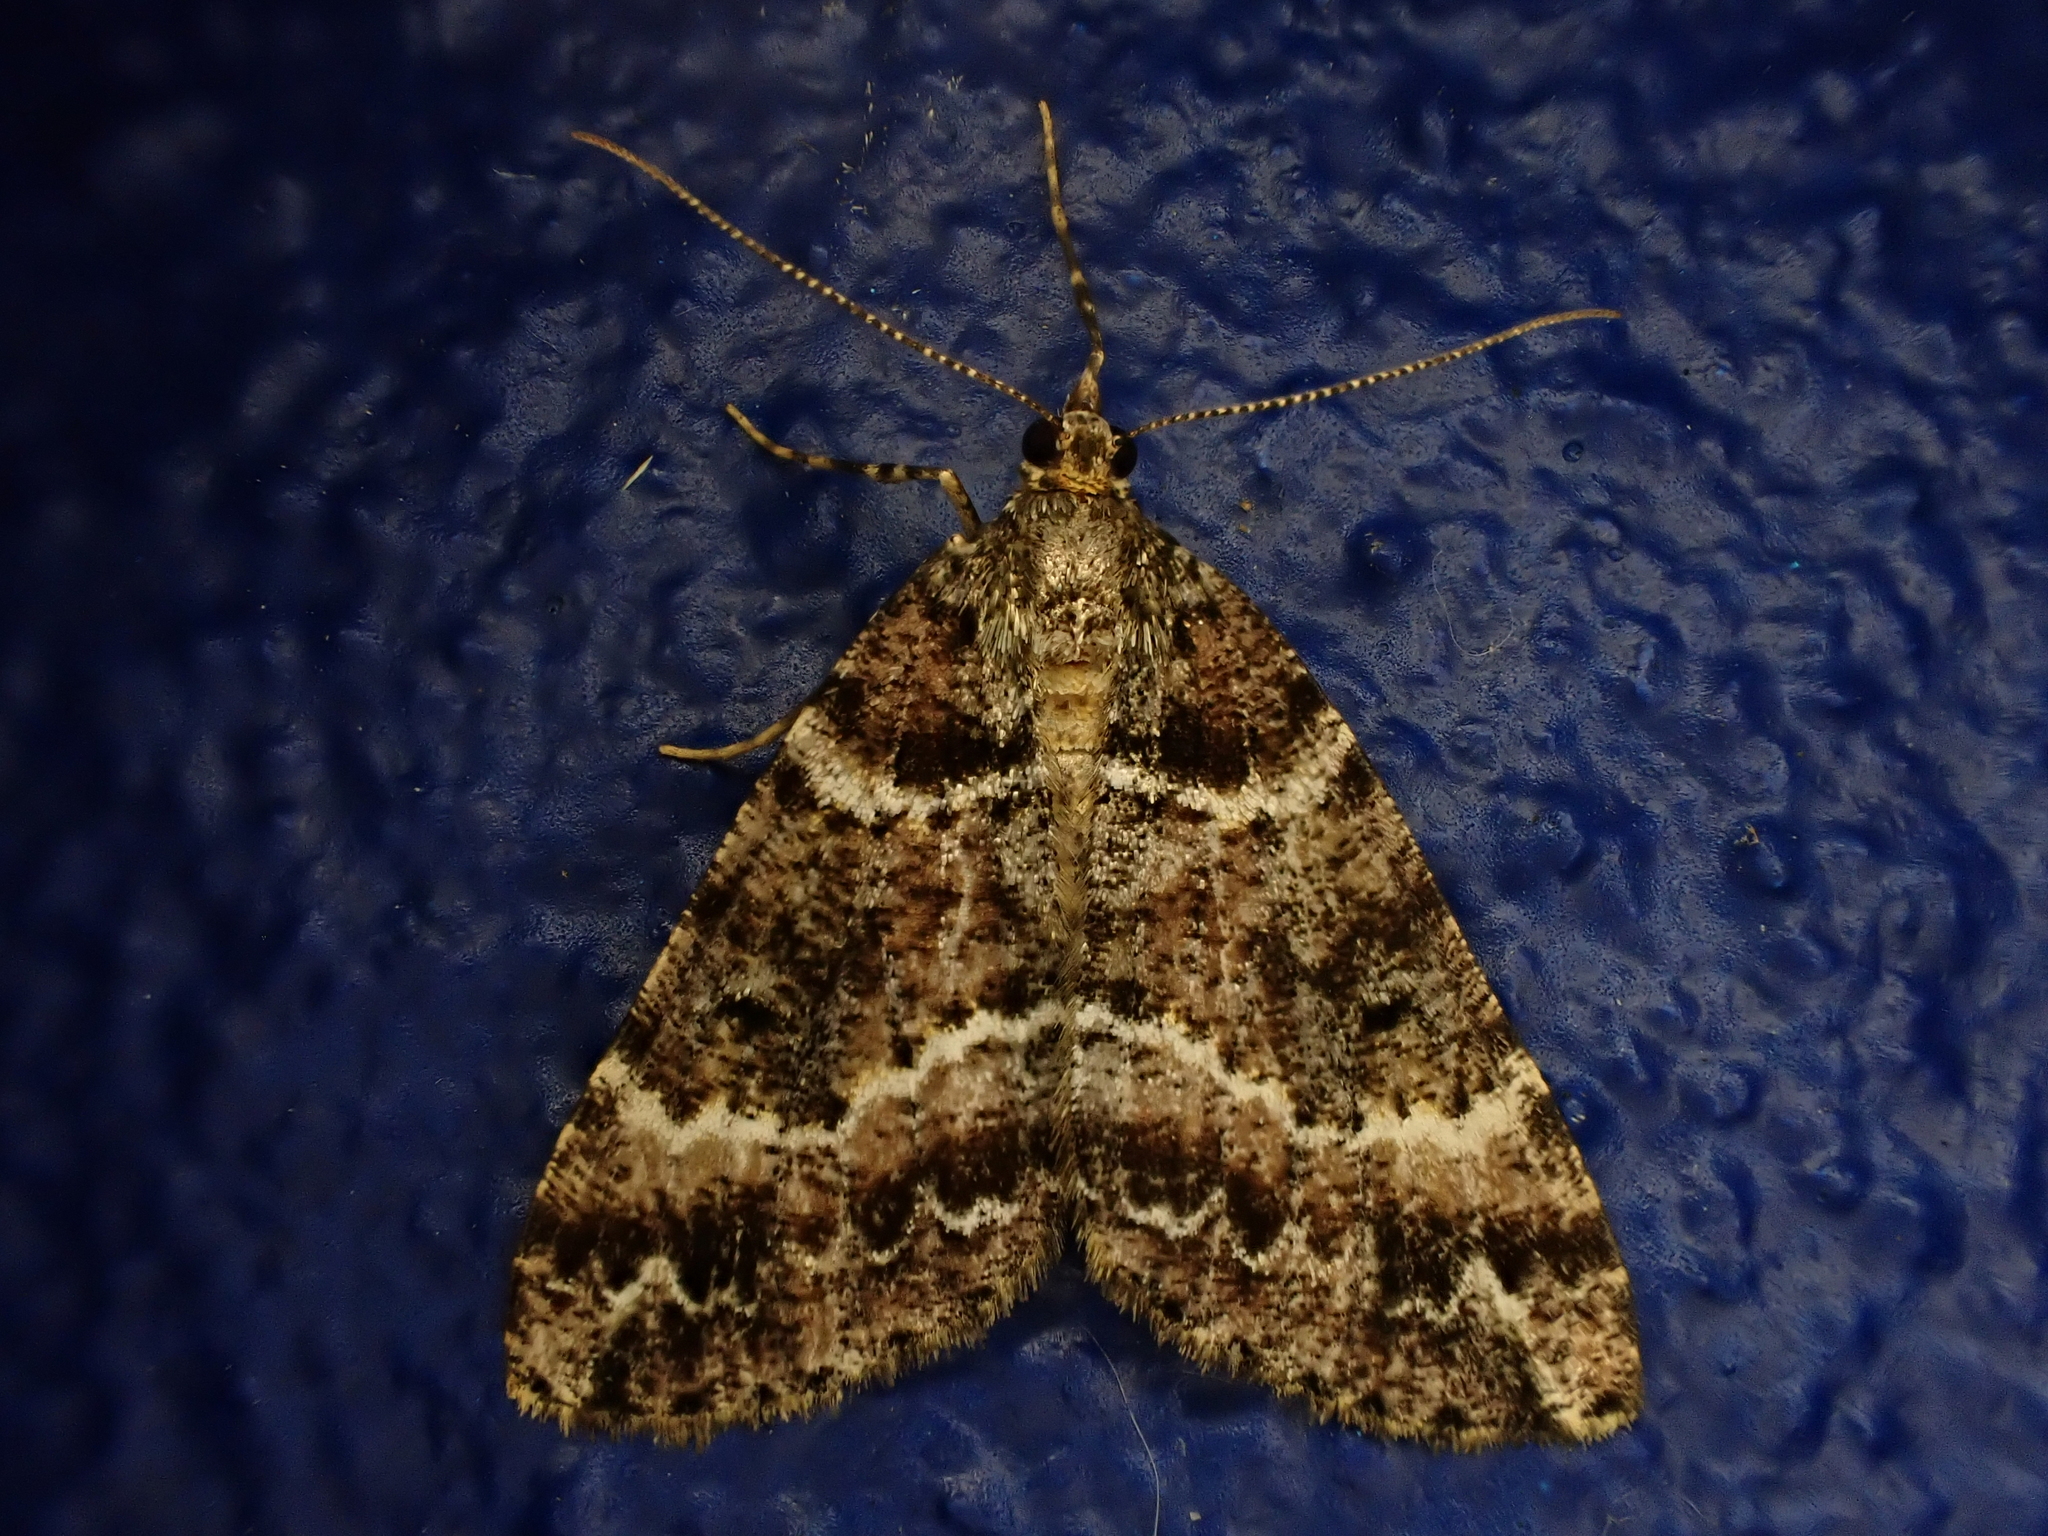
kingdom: Animalia
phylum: Arthropoda
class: Insecta
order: Lepidoptera
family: Geometridae
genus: Pseudocoremia
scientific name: Pseudocoremia productata
